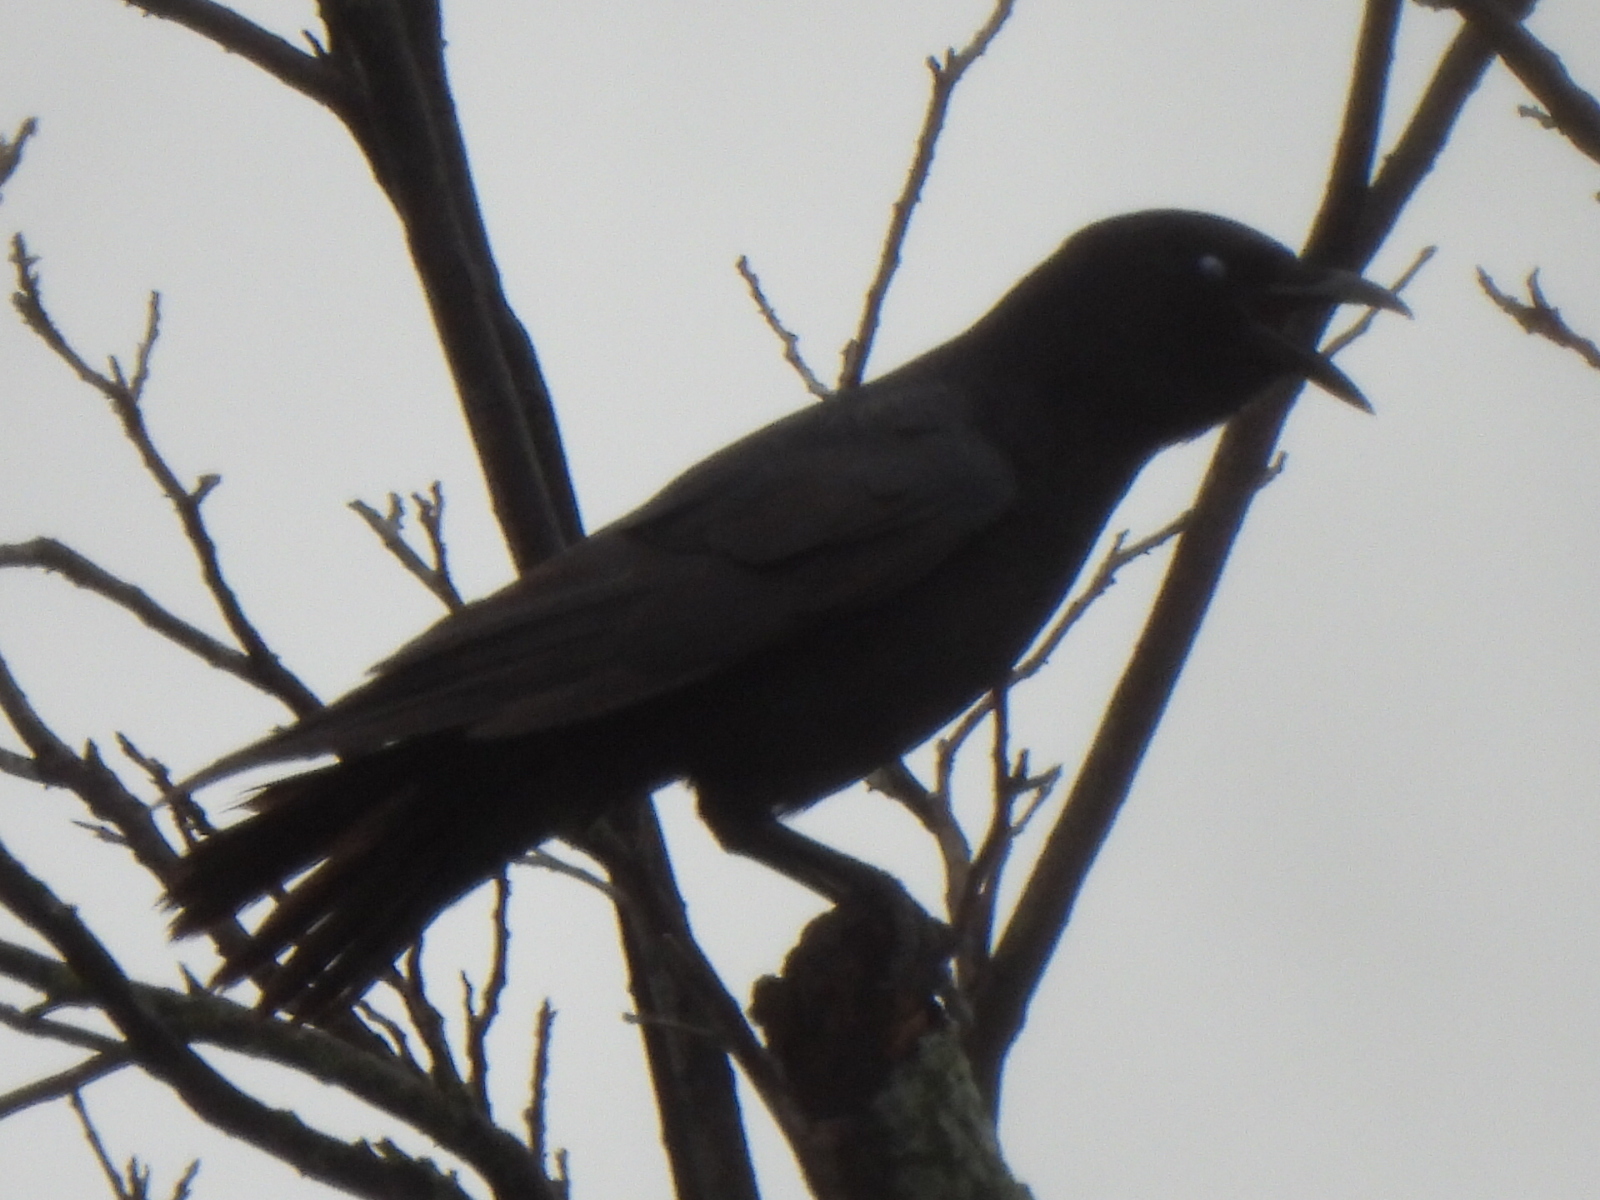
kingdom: Animalia
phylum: Chordata
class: Aves
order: Passeriformes
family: Corvidae
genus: Corvus
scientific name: Corvus brachyrhynchos
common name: American crow
